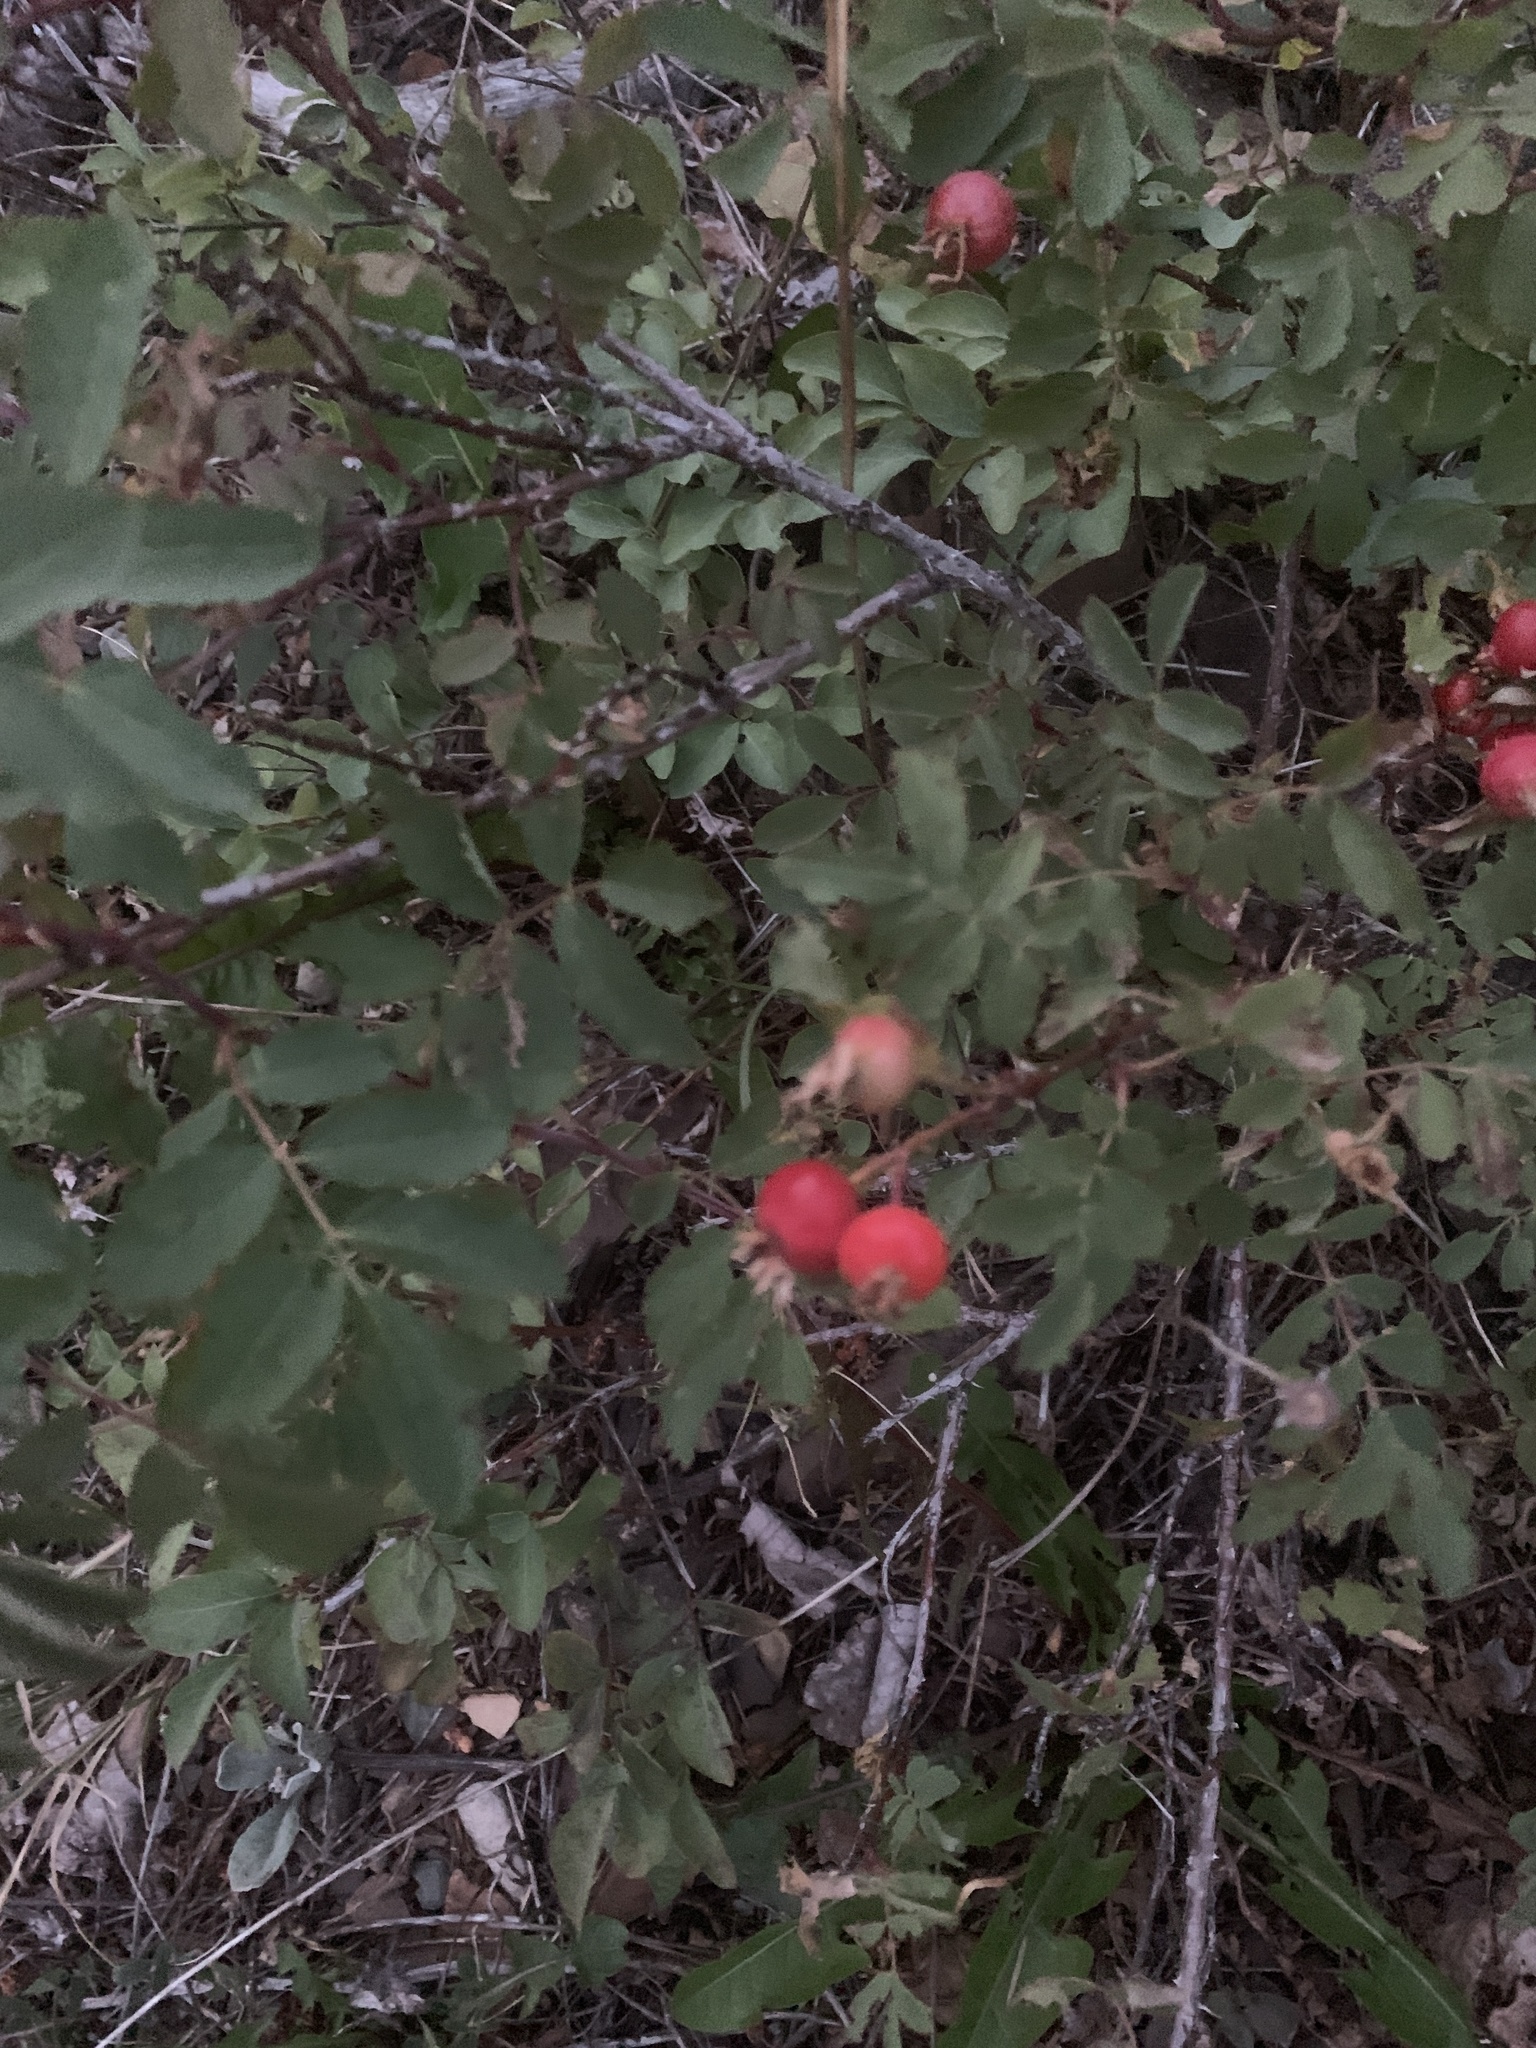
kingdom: Plantae
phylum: Tracheophyta
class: Magnoliopsida
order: Rosales
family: Rosaceae
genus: Rosa
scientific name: Rosa woodsii
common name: Woods's rose
